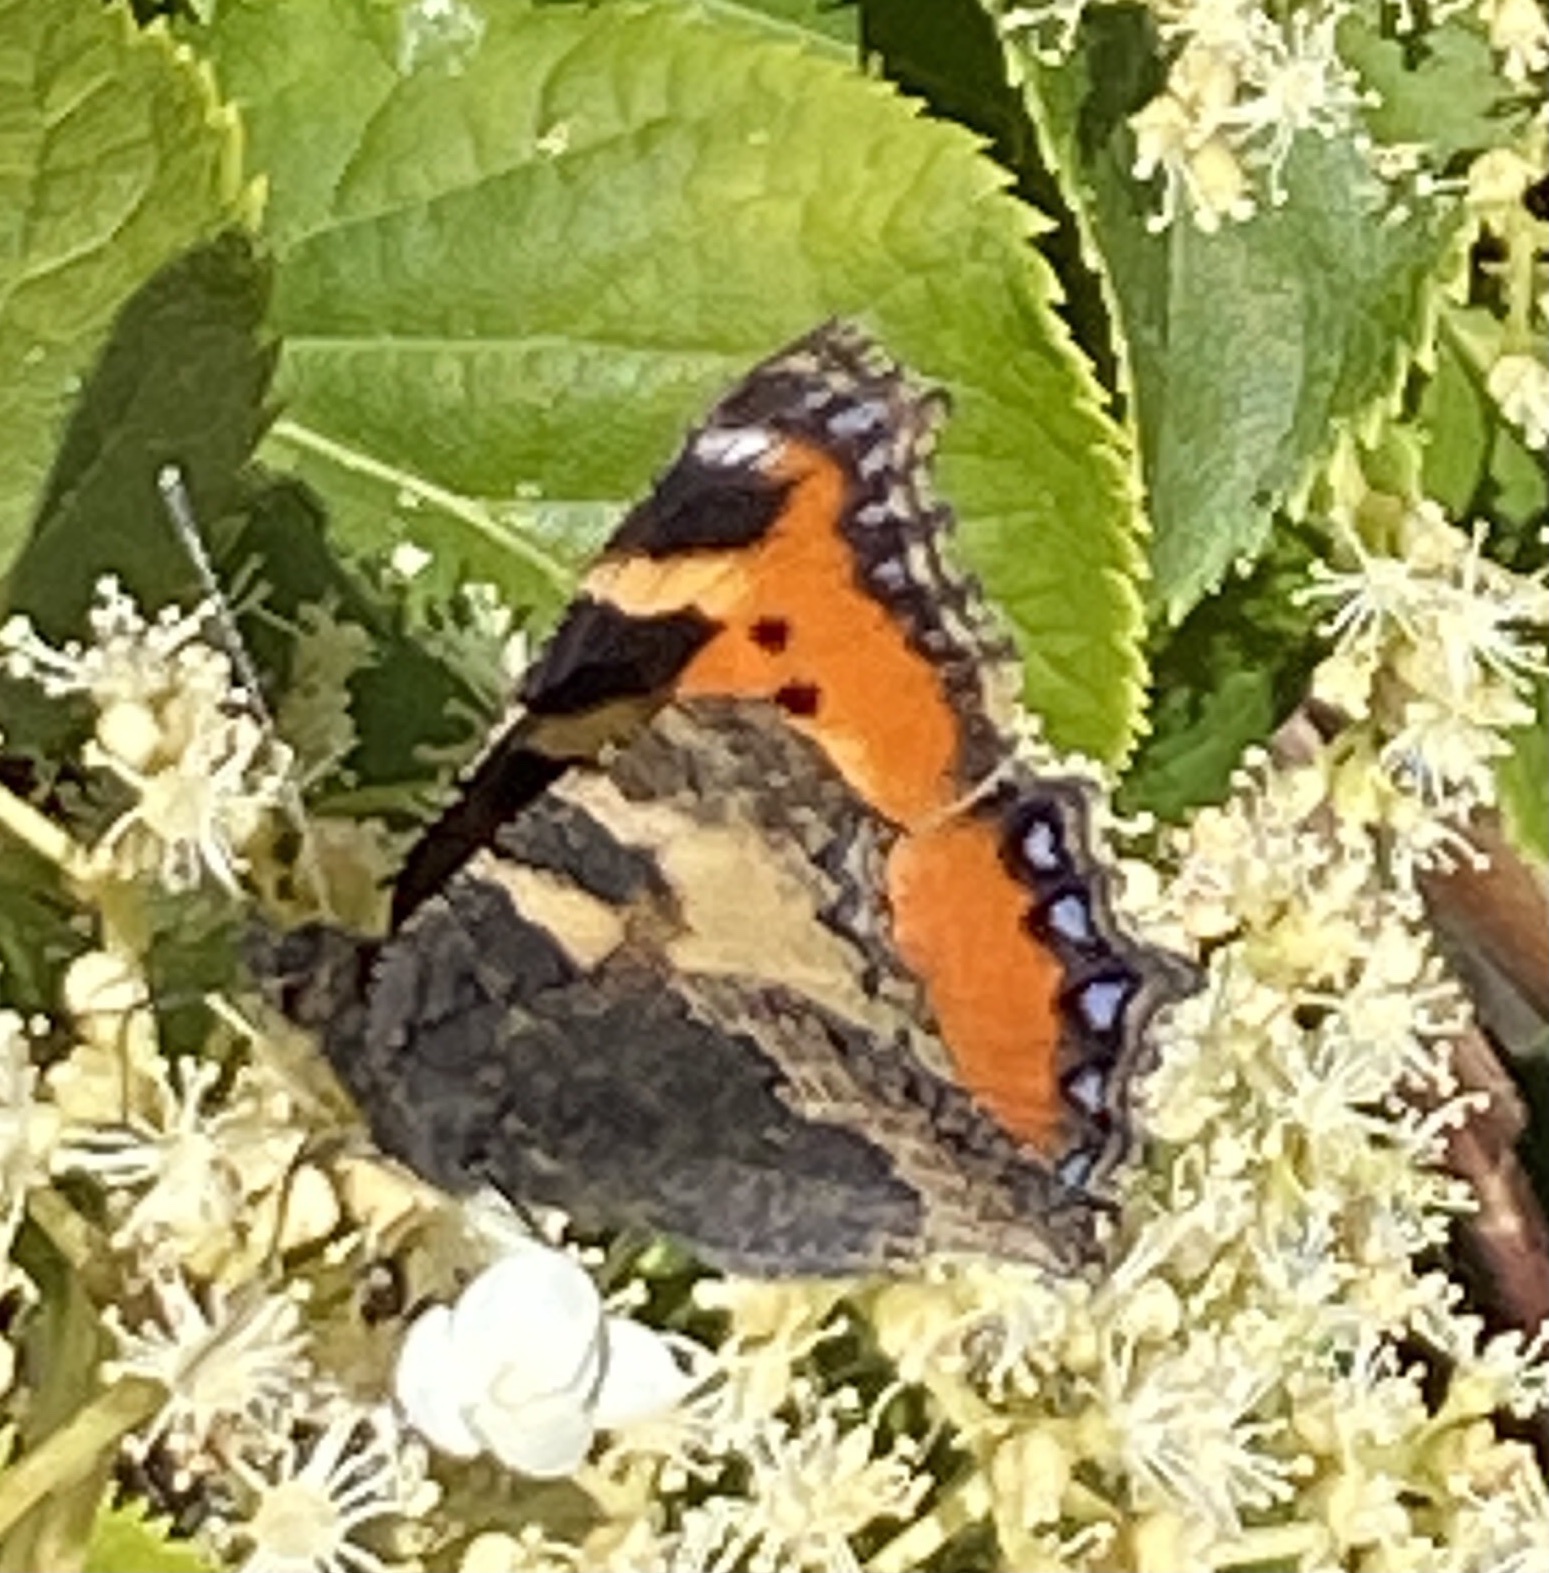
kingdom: Animalia
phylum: Arthropoda
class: Insecta
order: Lepidoptera
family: Nymphalidae
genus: Aglais
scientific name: Aglais urticae
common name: Small tortoiseshell
